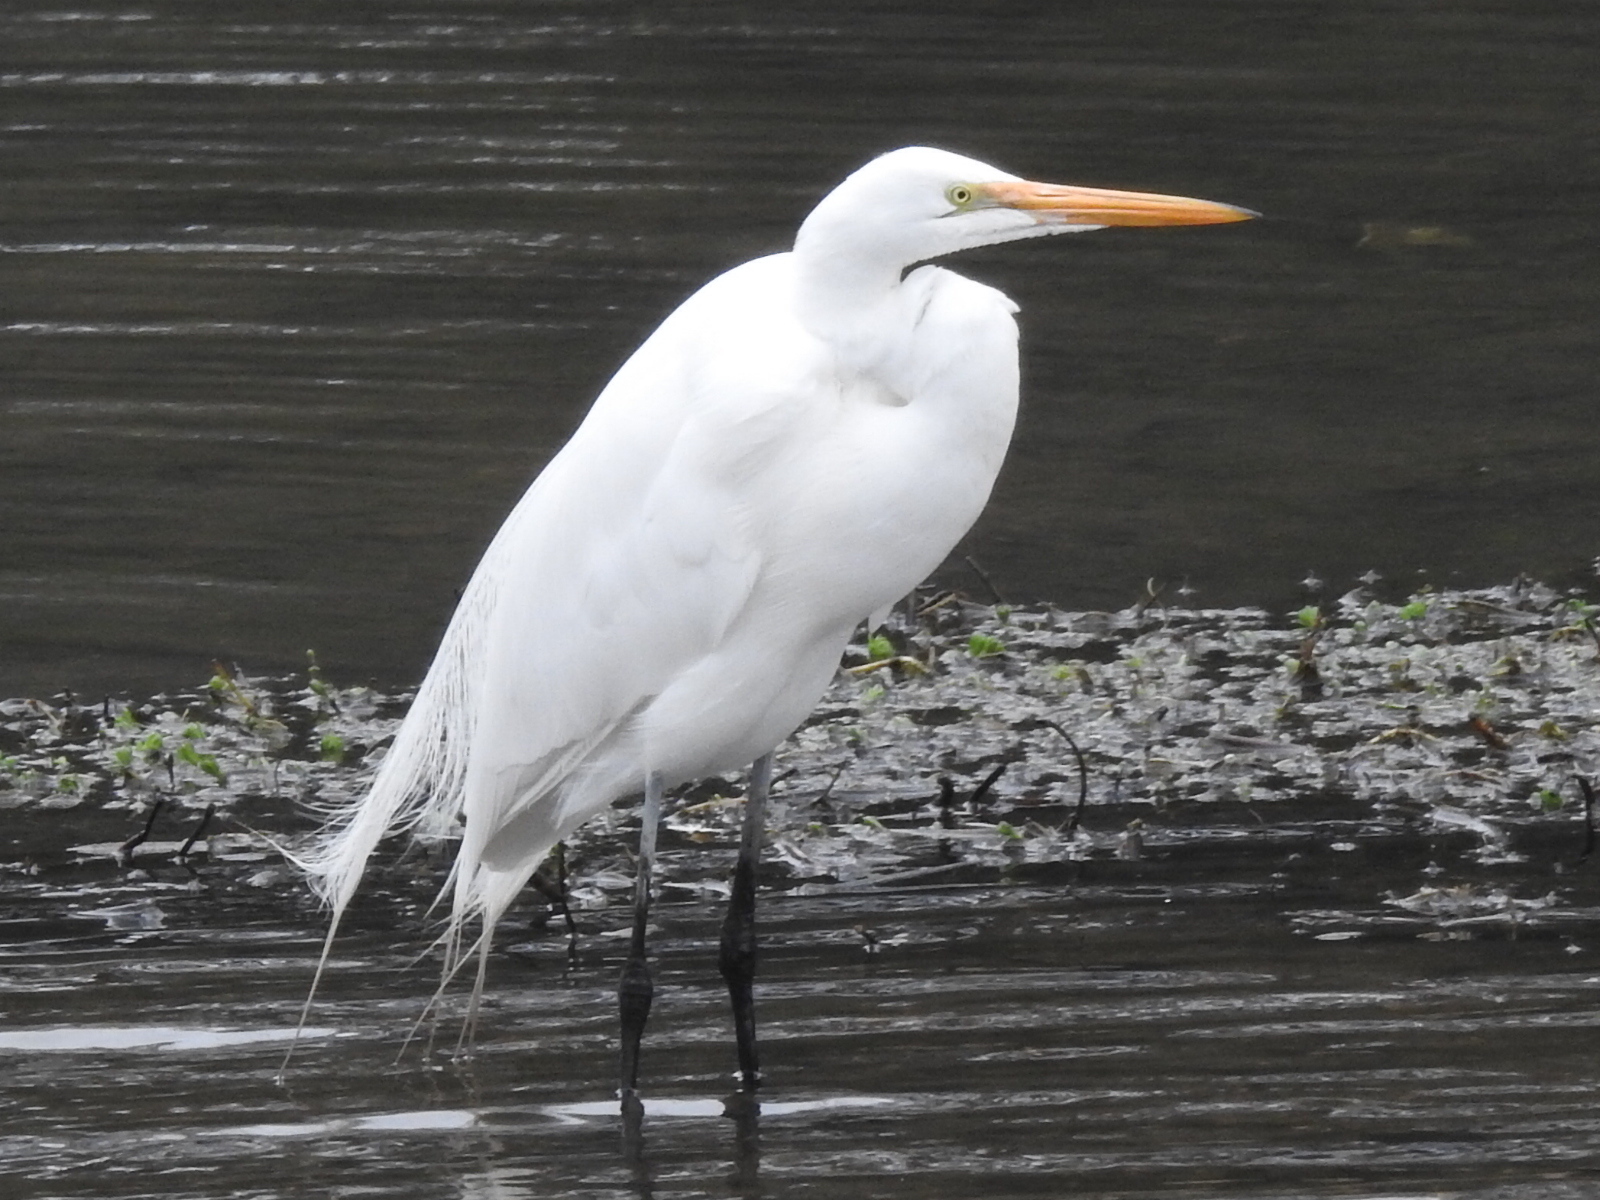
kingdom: Animalia
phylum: Chordata
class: Aves
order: Pelecaniformes
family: Ardeidae
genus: Ardea
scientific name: Ardea alba
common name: Great egret
